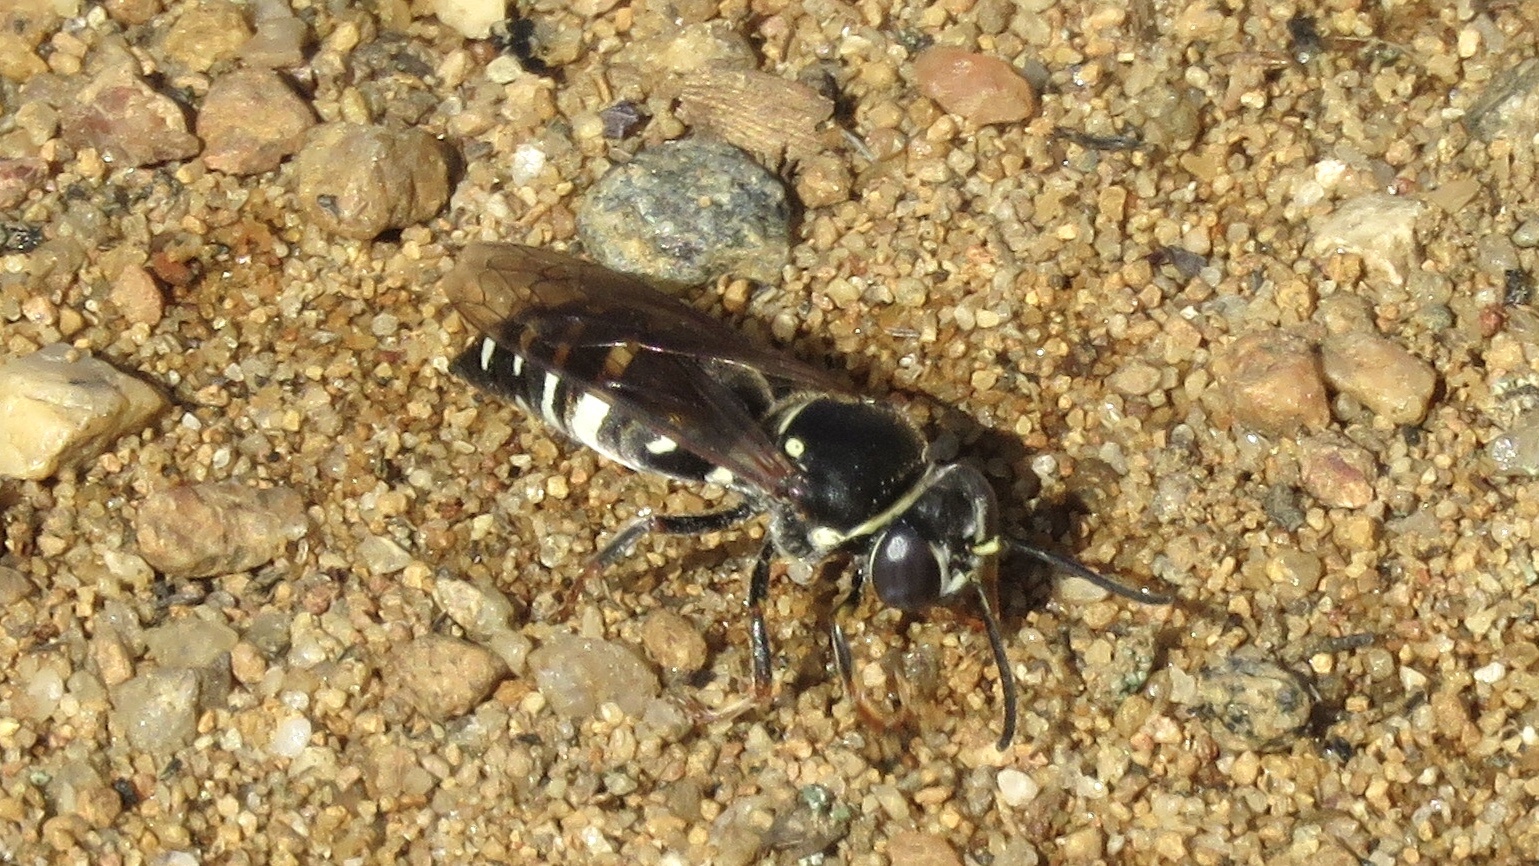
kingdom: Animalia
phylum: Arthropoda
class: Insecta
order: Hymenoptera
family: Crabronidae
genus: Bicyrtes
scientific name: Bicyrtes ventralis
